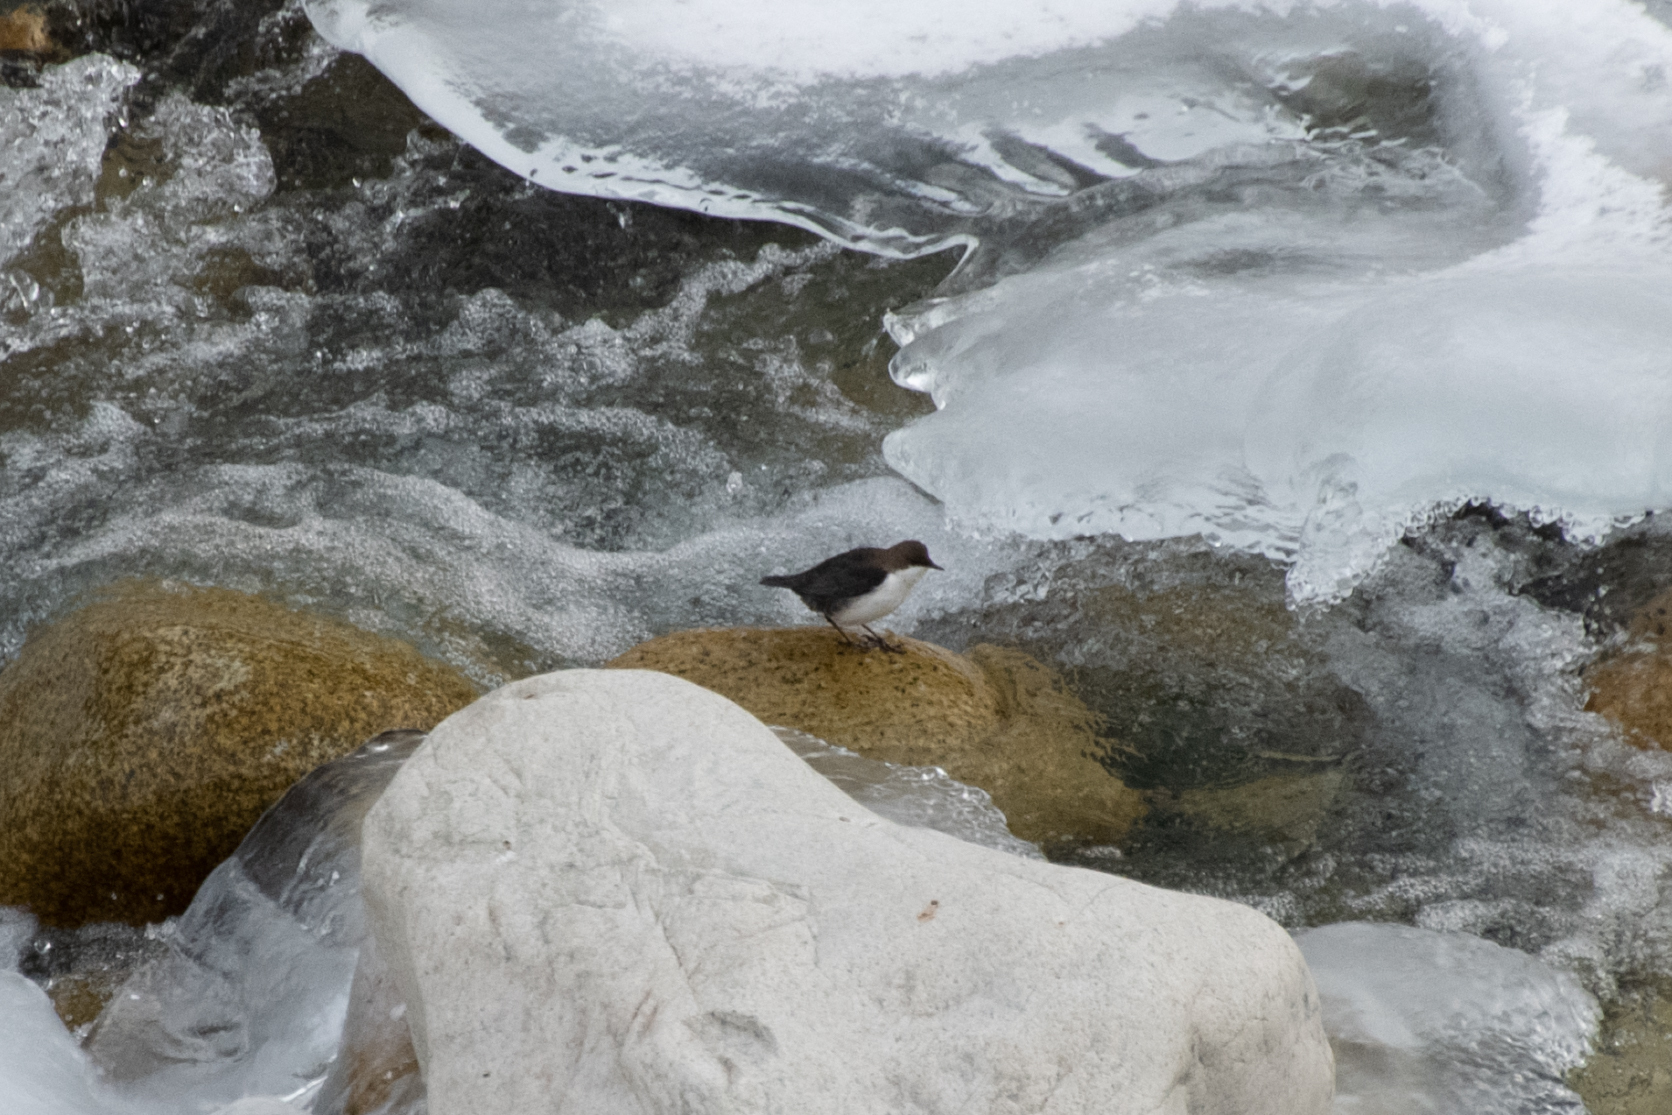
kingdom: Animalia
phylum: Chordata
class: Aves
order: Passeriformes
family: Cinclidae
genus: Cinclus
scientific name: Cinclus cinclus
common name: White-throated dipper
